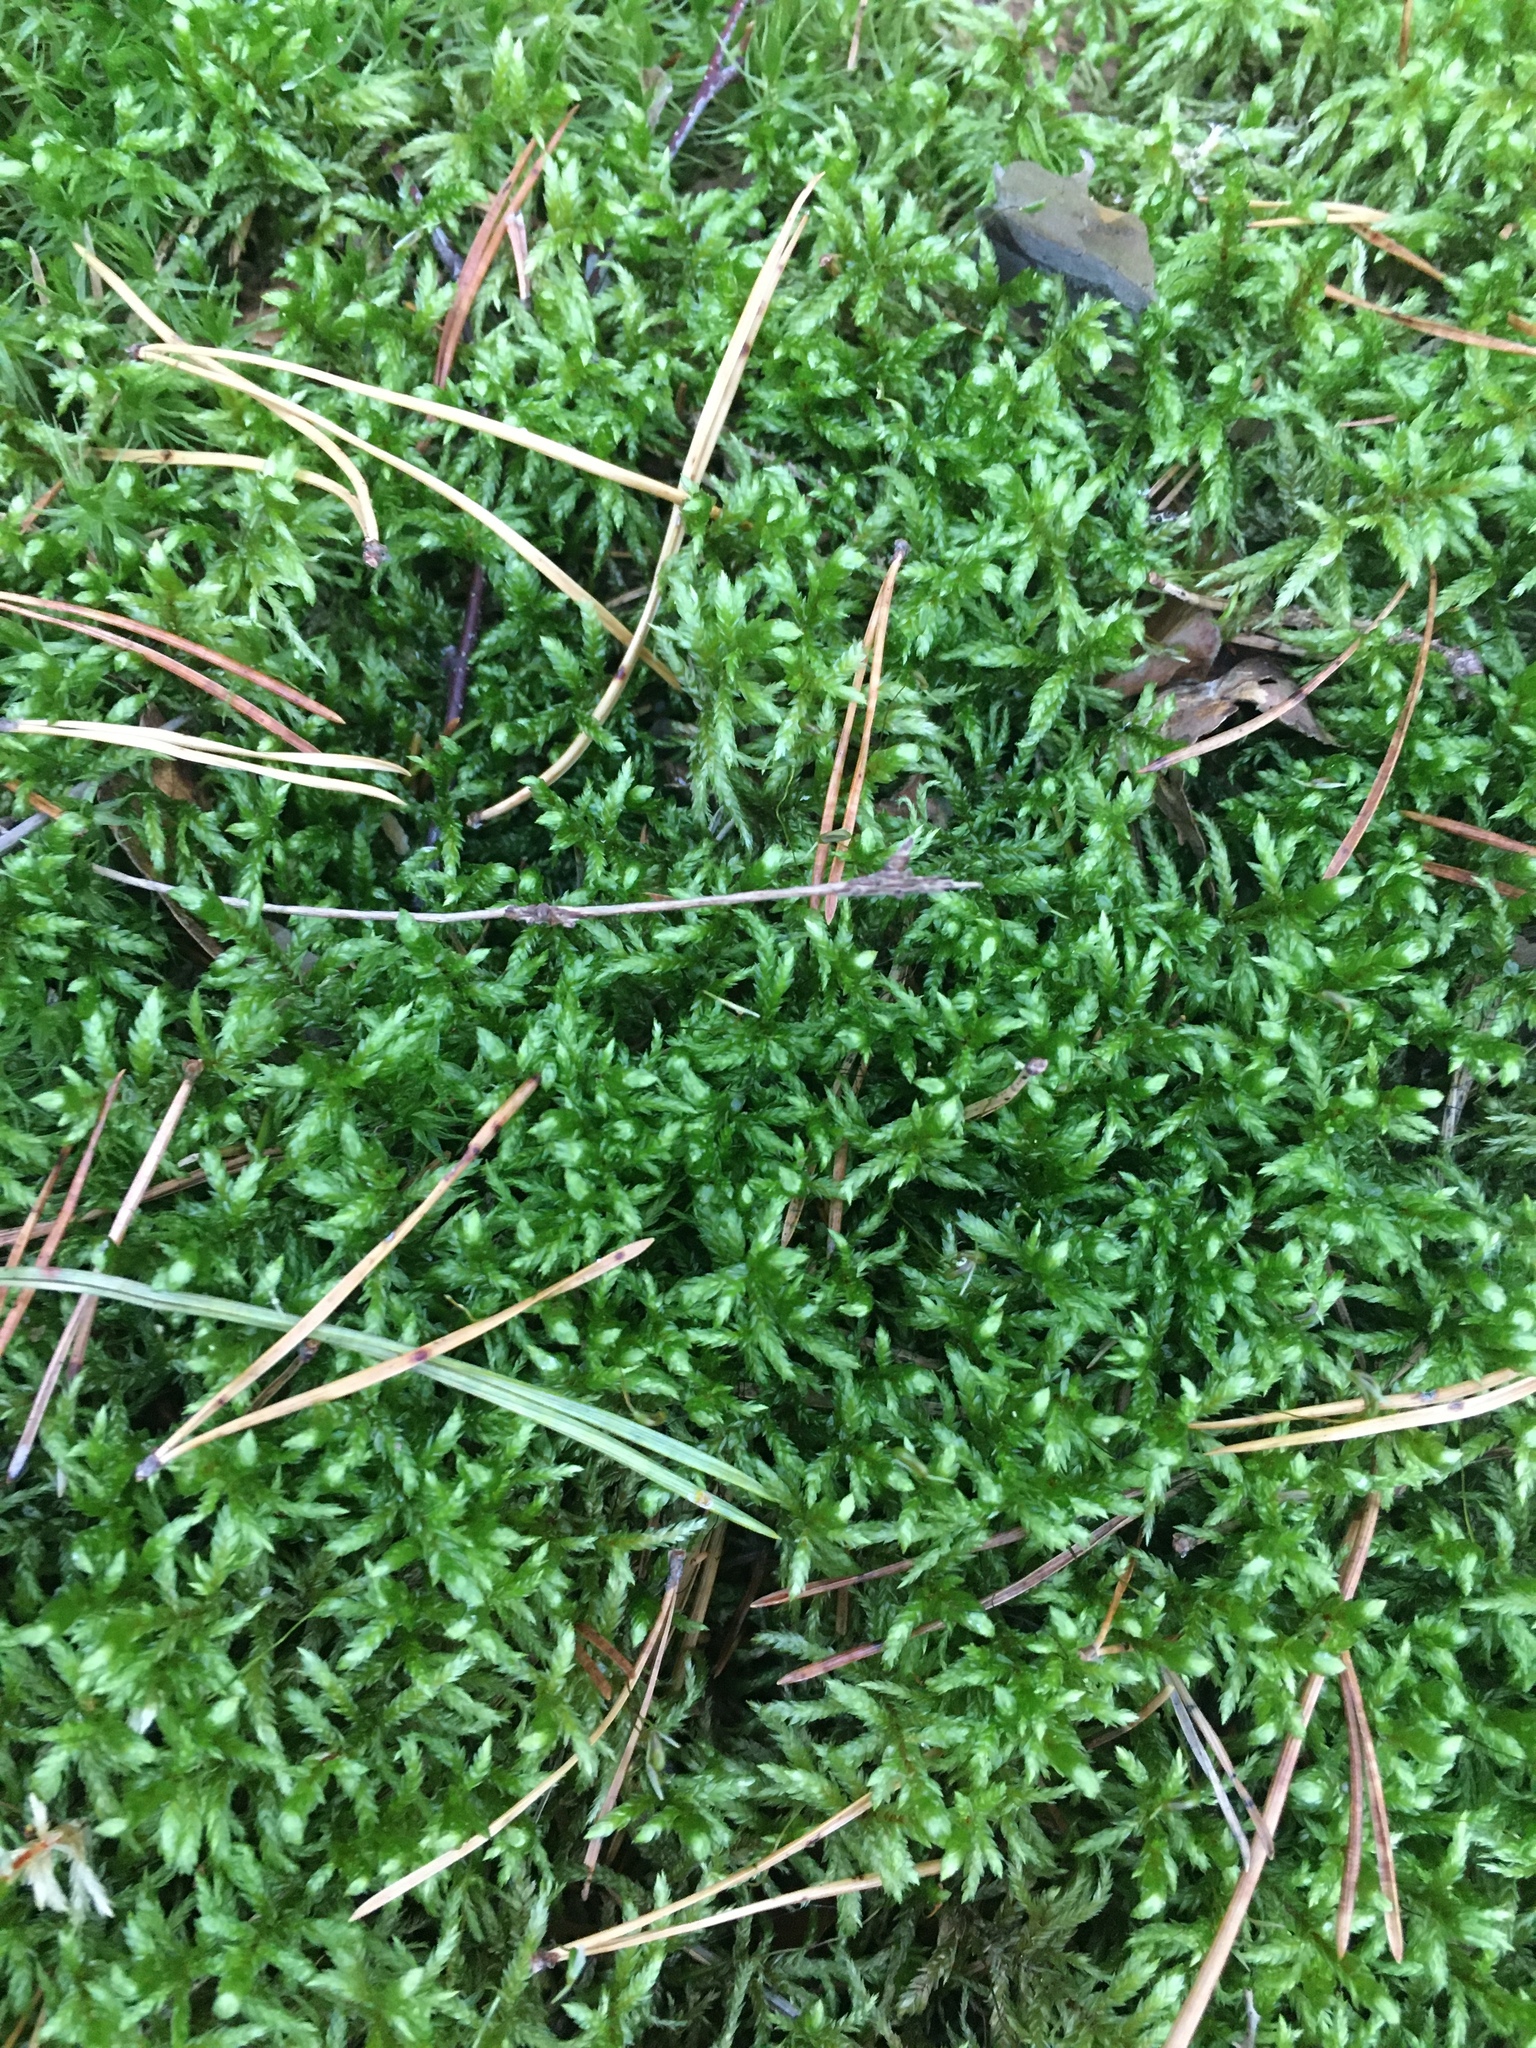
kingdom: Plantae
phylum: Bryophyta
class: Bryopsida
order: Hypnales
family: Hylocomiaceae
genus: Pleurozium
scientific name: Pleurozium schreberi
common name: Red-stemmed feather moss
